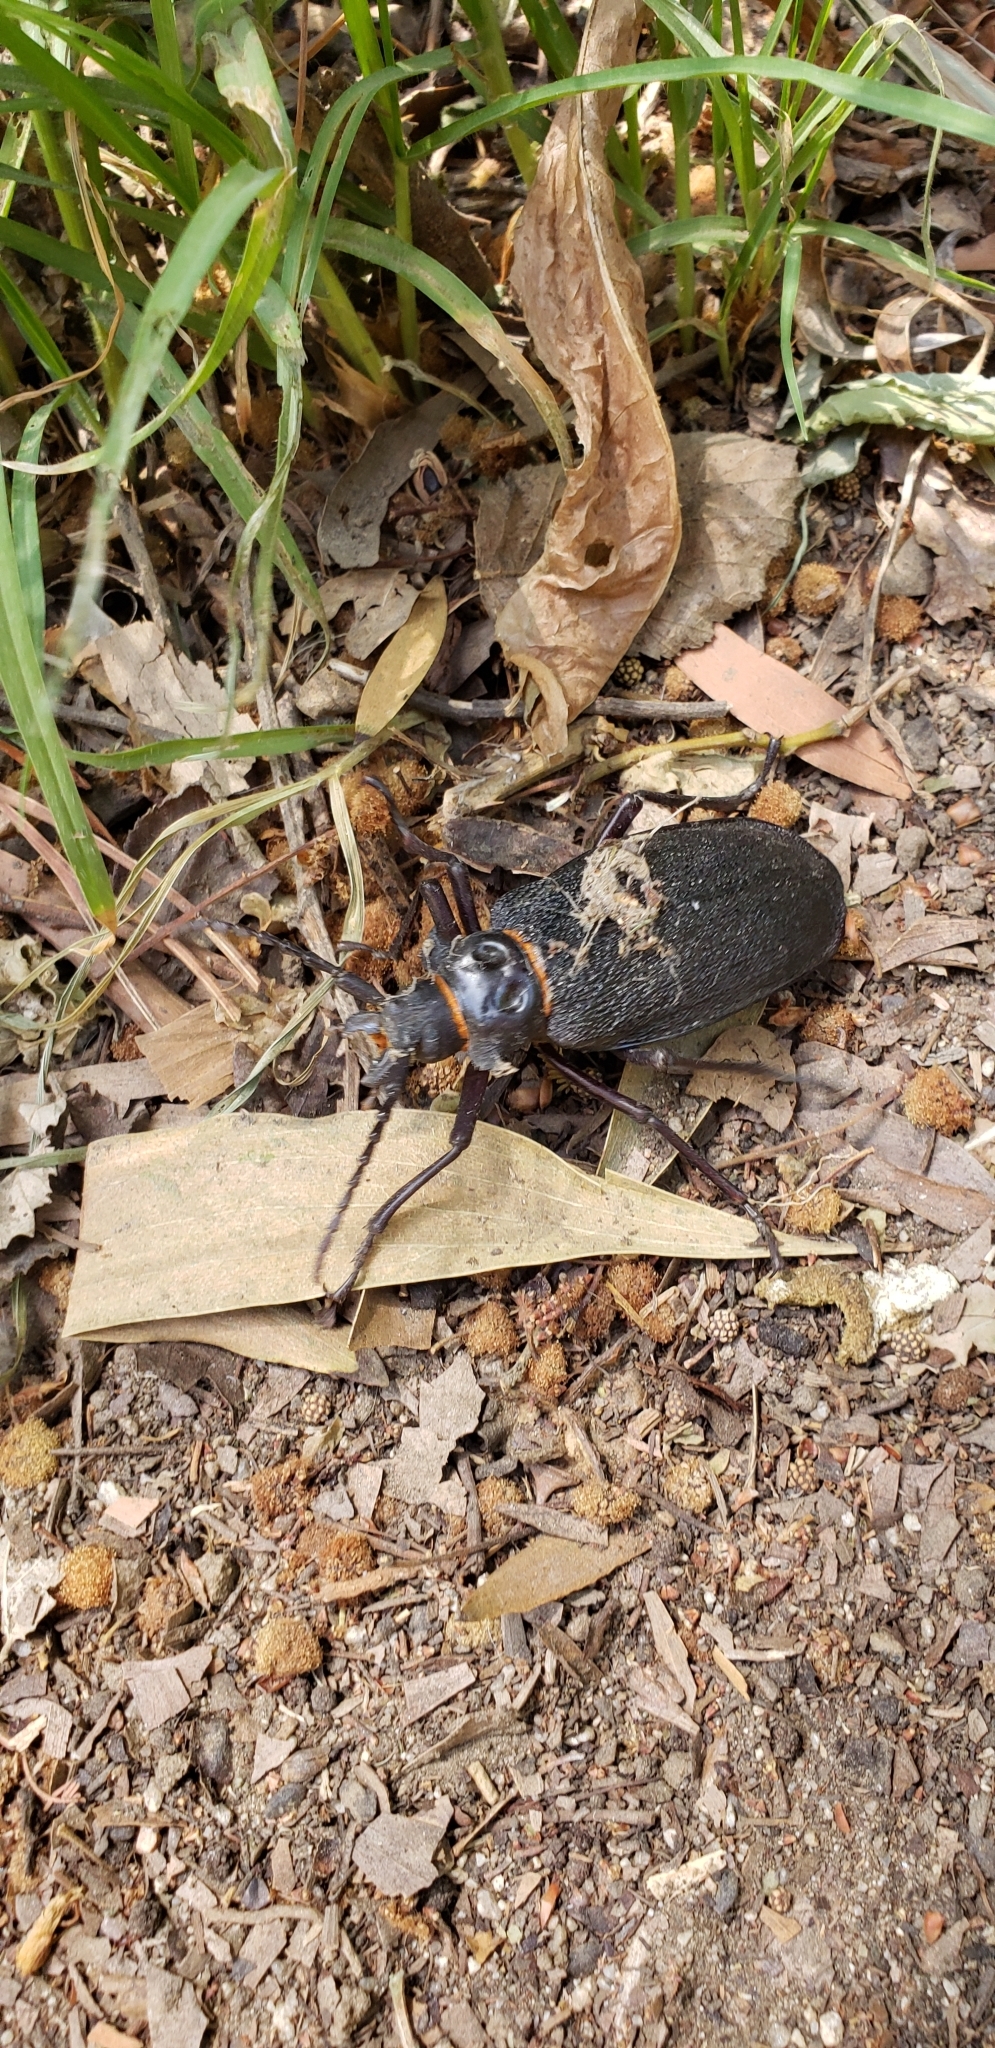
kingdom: Animalia
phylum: Arthropoda
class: Insecta
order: Coleoptera
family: Cerambycidae
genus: Acanthinodera
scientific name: Acanthinodera cumingii
